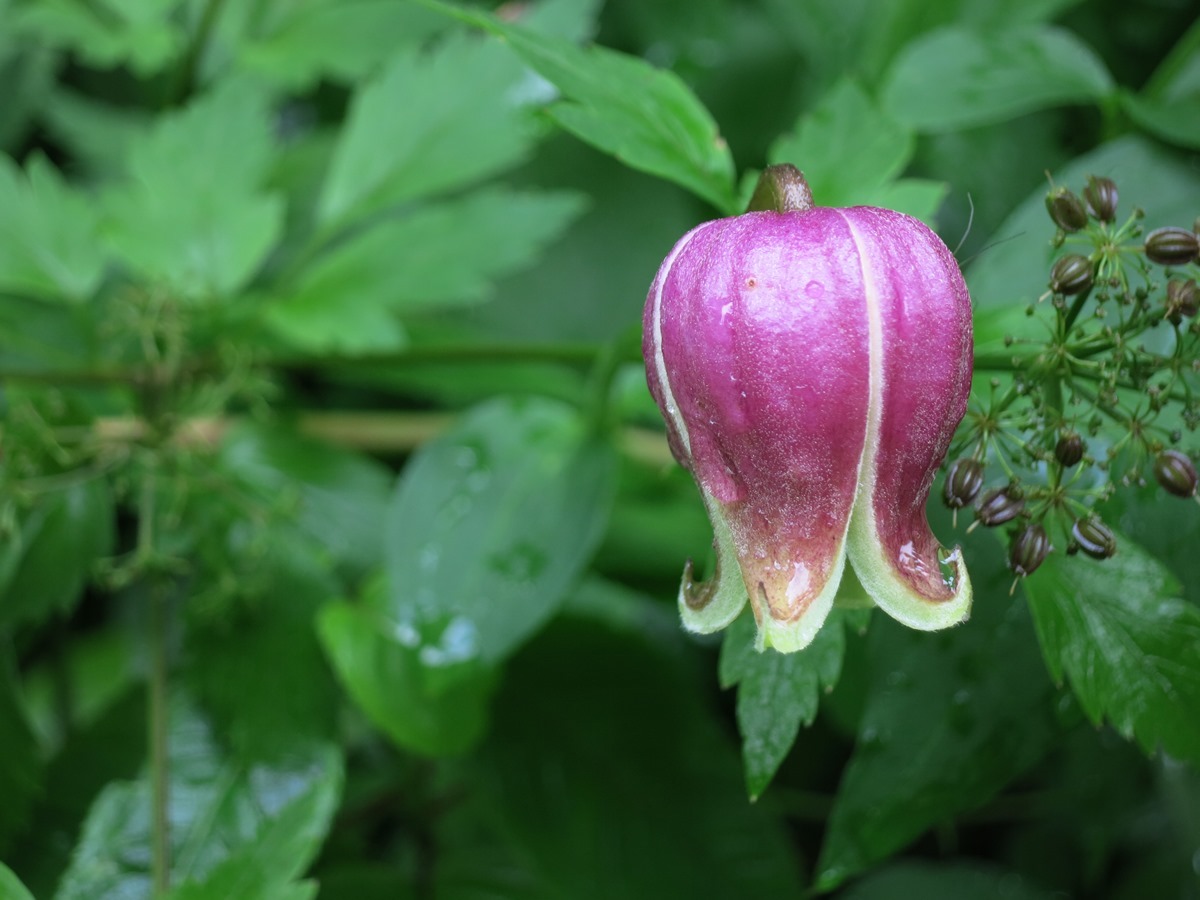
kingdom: Plantae
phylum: Tracheophyta
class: Magnoliopsida
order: Ranunculales
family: Ranunculaceae
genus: Clematis
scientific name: Clematis viorna
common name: Leather-flower
